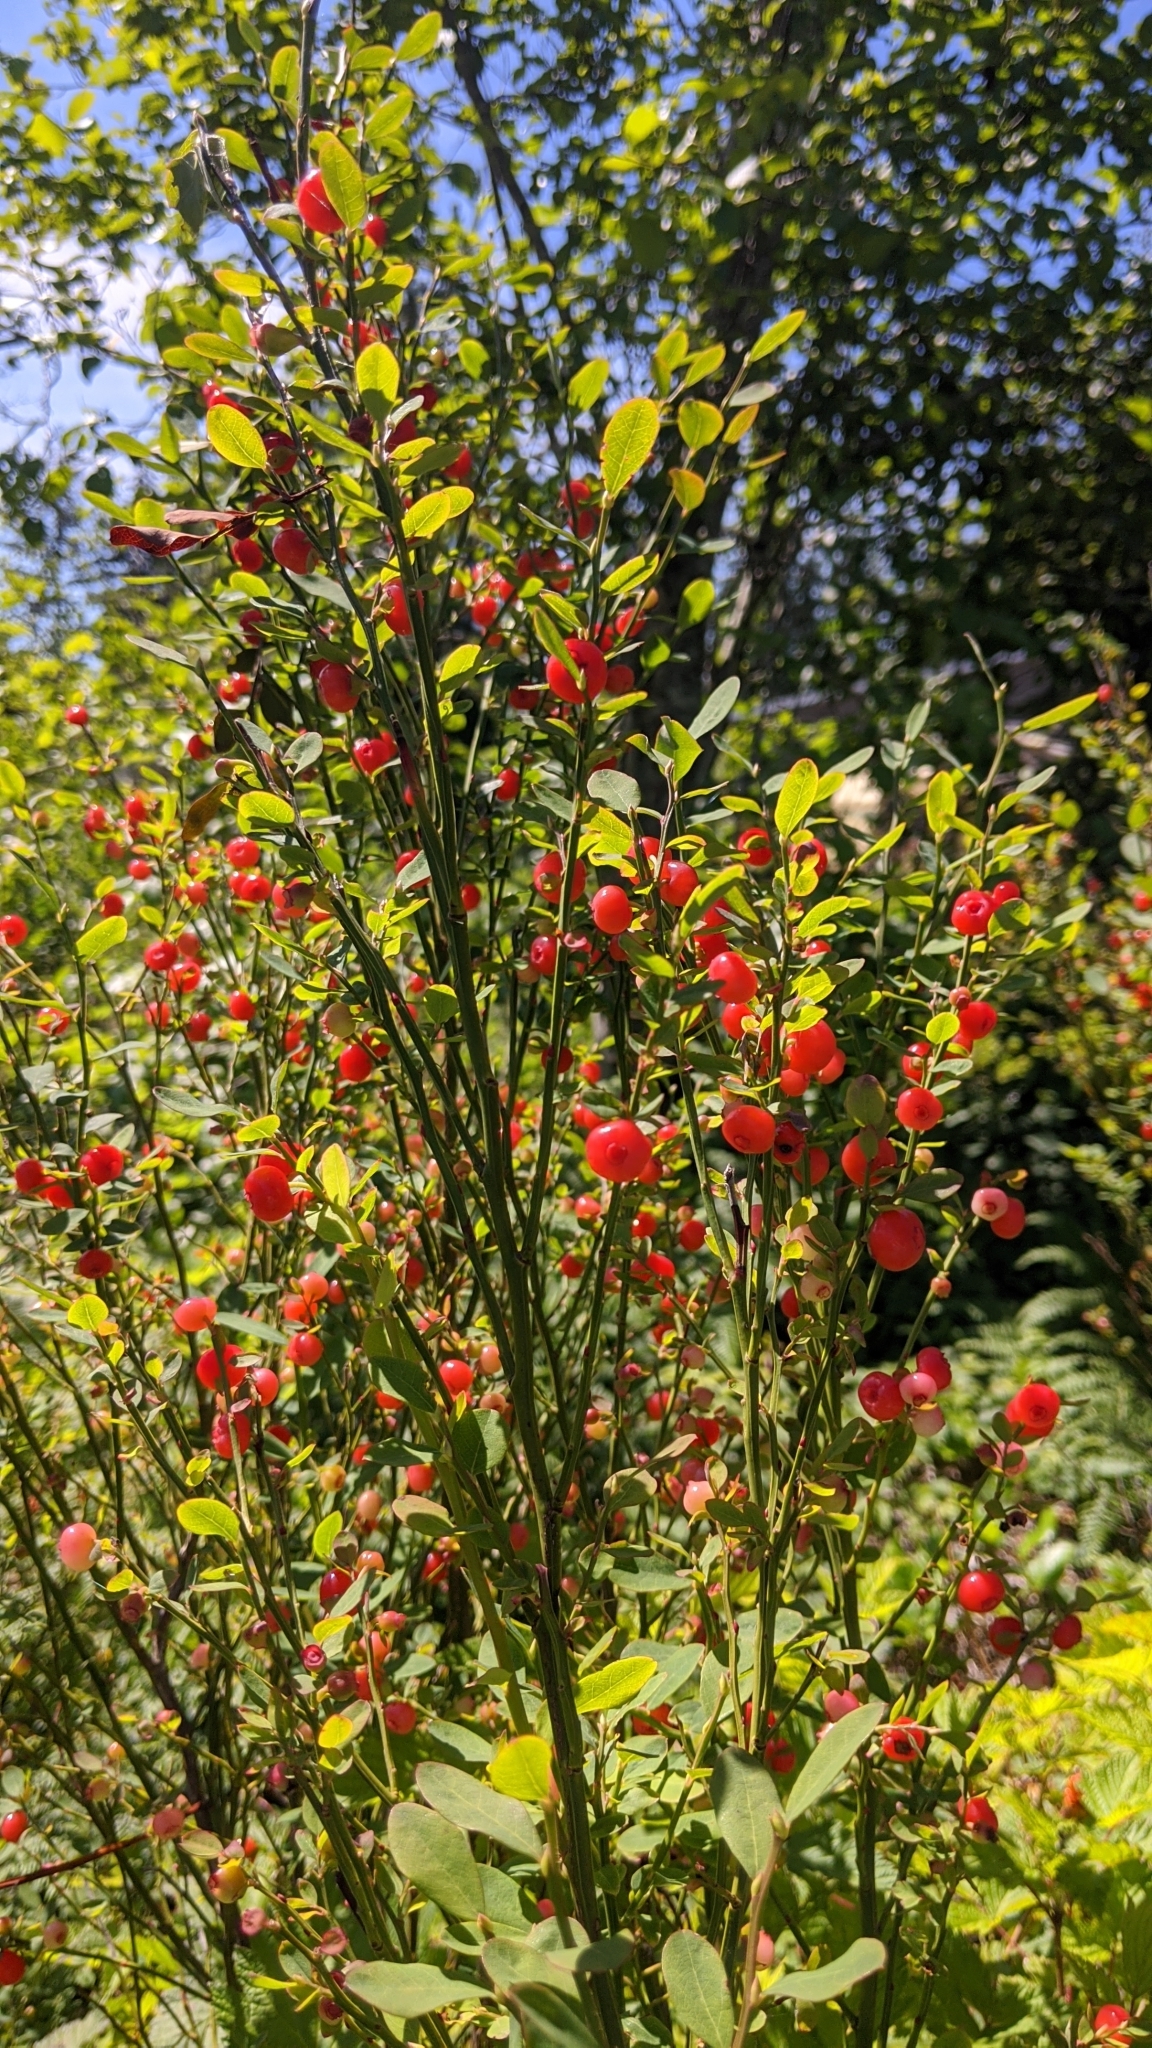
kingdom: Plantae
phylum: Tracheophyta
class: Magnoliopsida
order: Ericales
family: Ericaceae
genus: Vaccinium
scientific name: Vaccinium parvifolium
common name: Red-huckleberry
